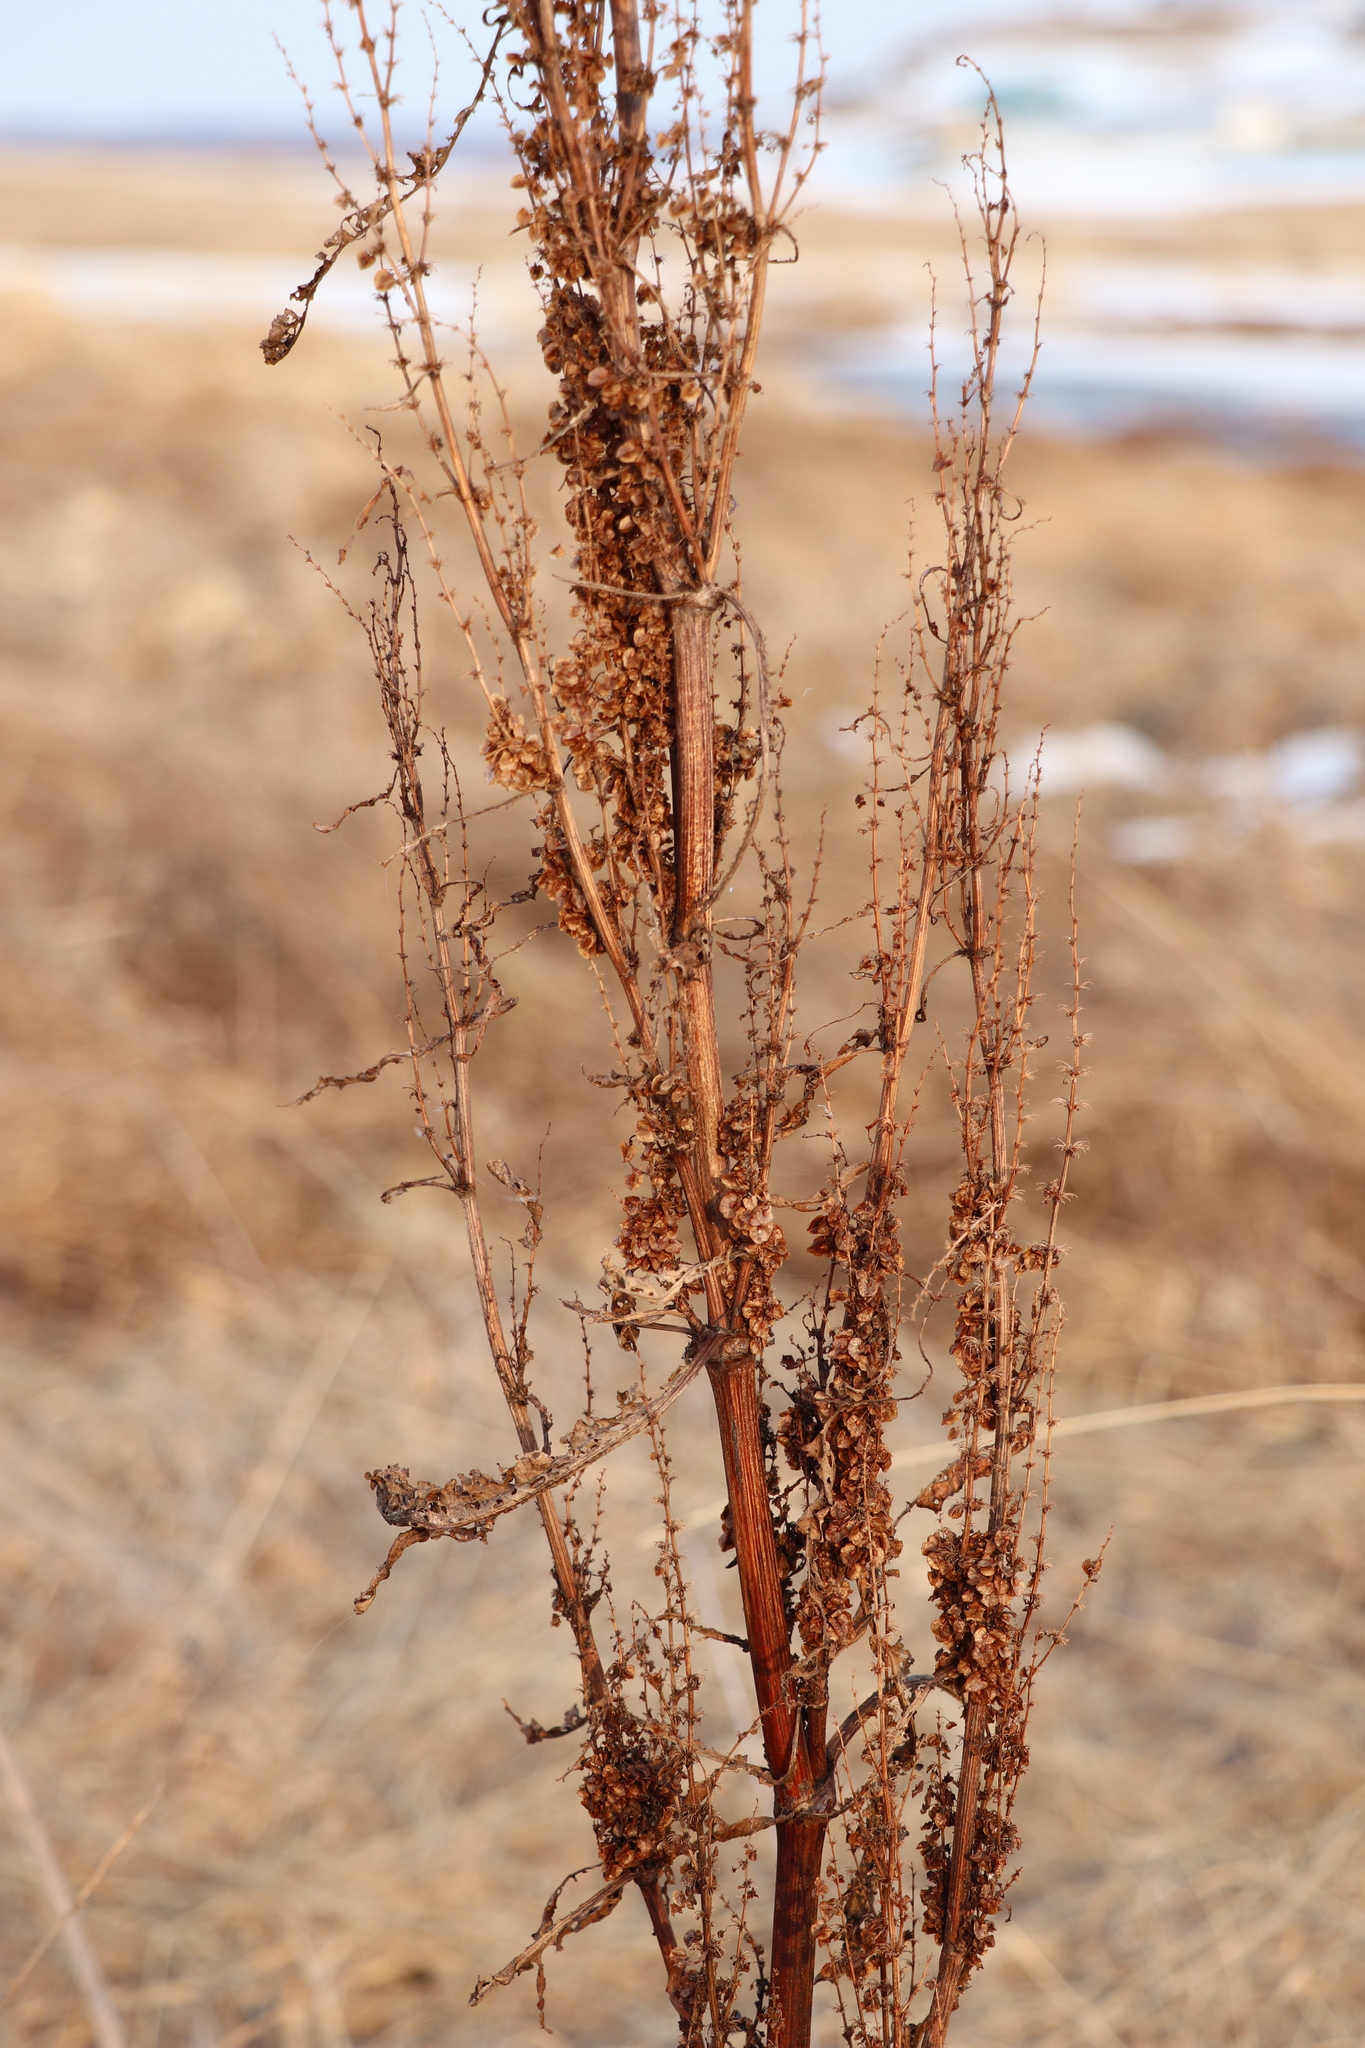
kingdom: Plantae
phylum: Tracheophyta
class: Magnoliopsida
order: Caryophyllales
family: Polygonaceae
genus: Rumex
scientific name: Rumex aquaticus
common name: Scottish dock
